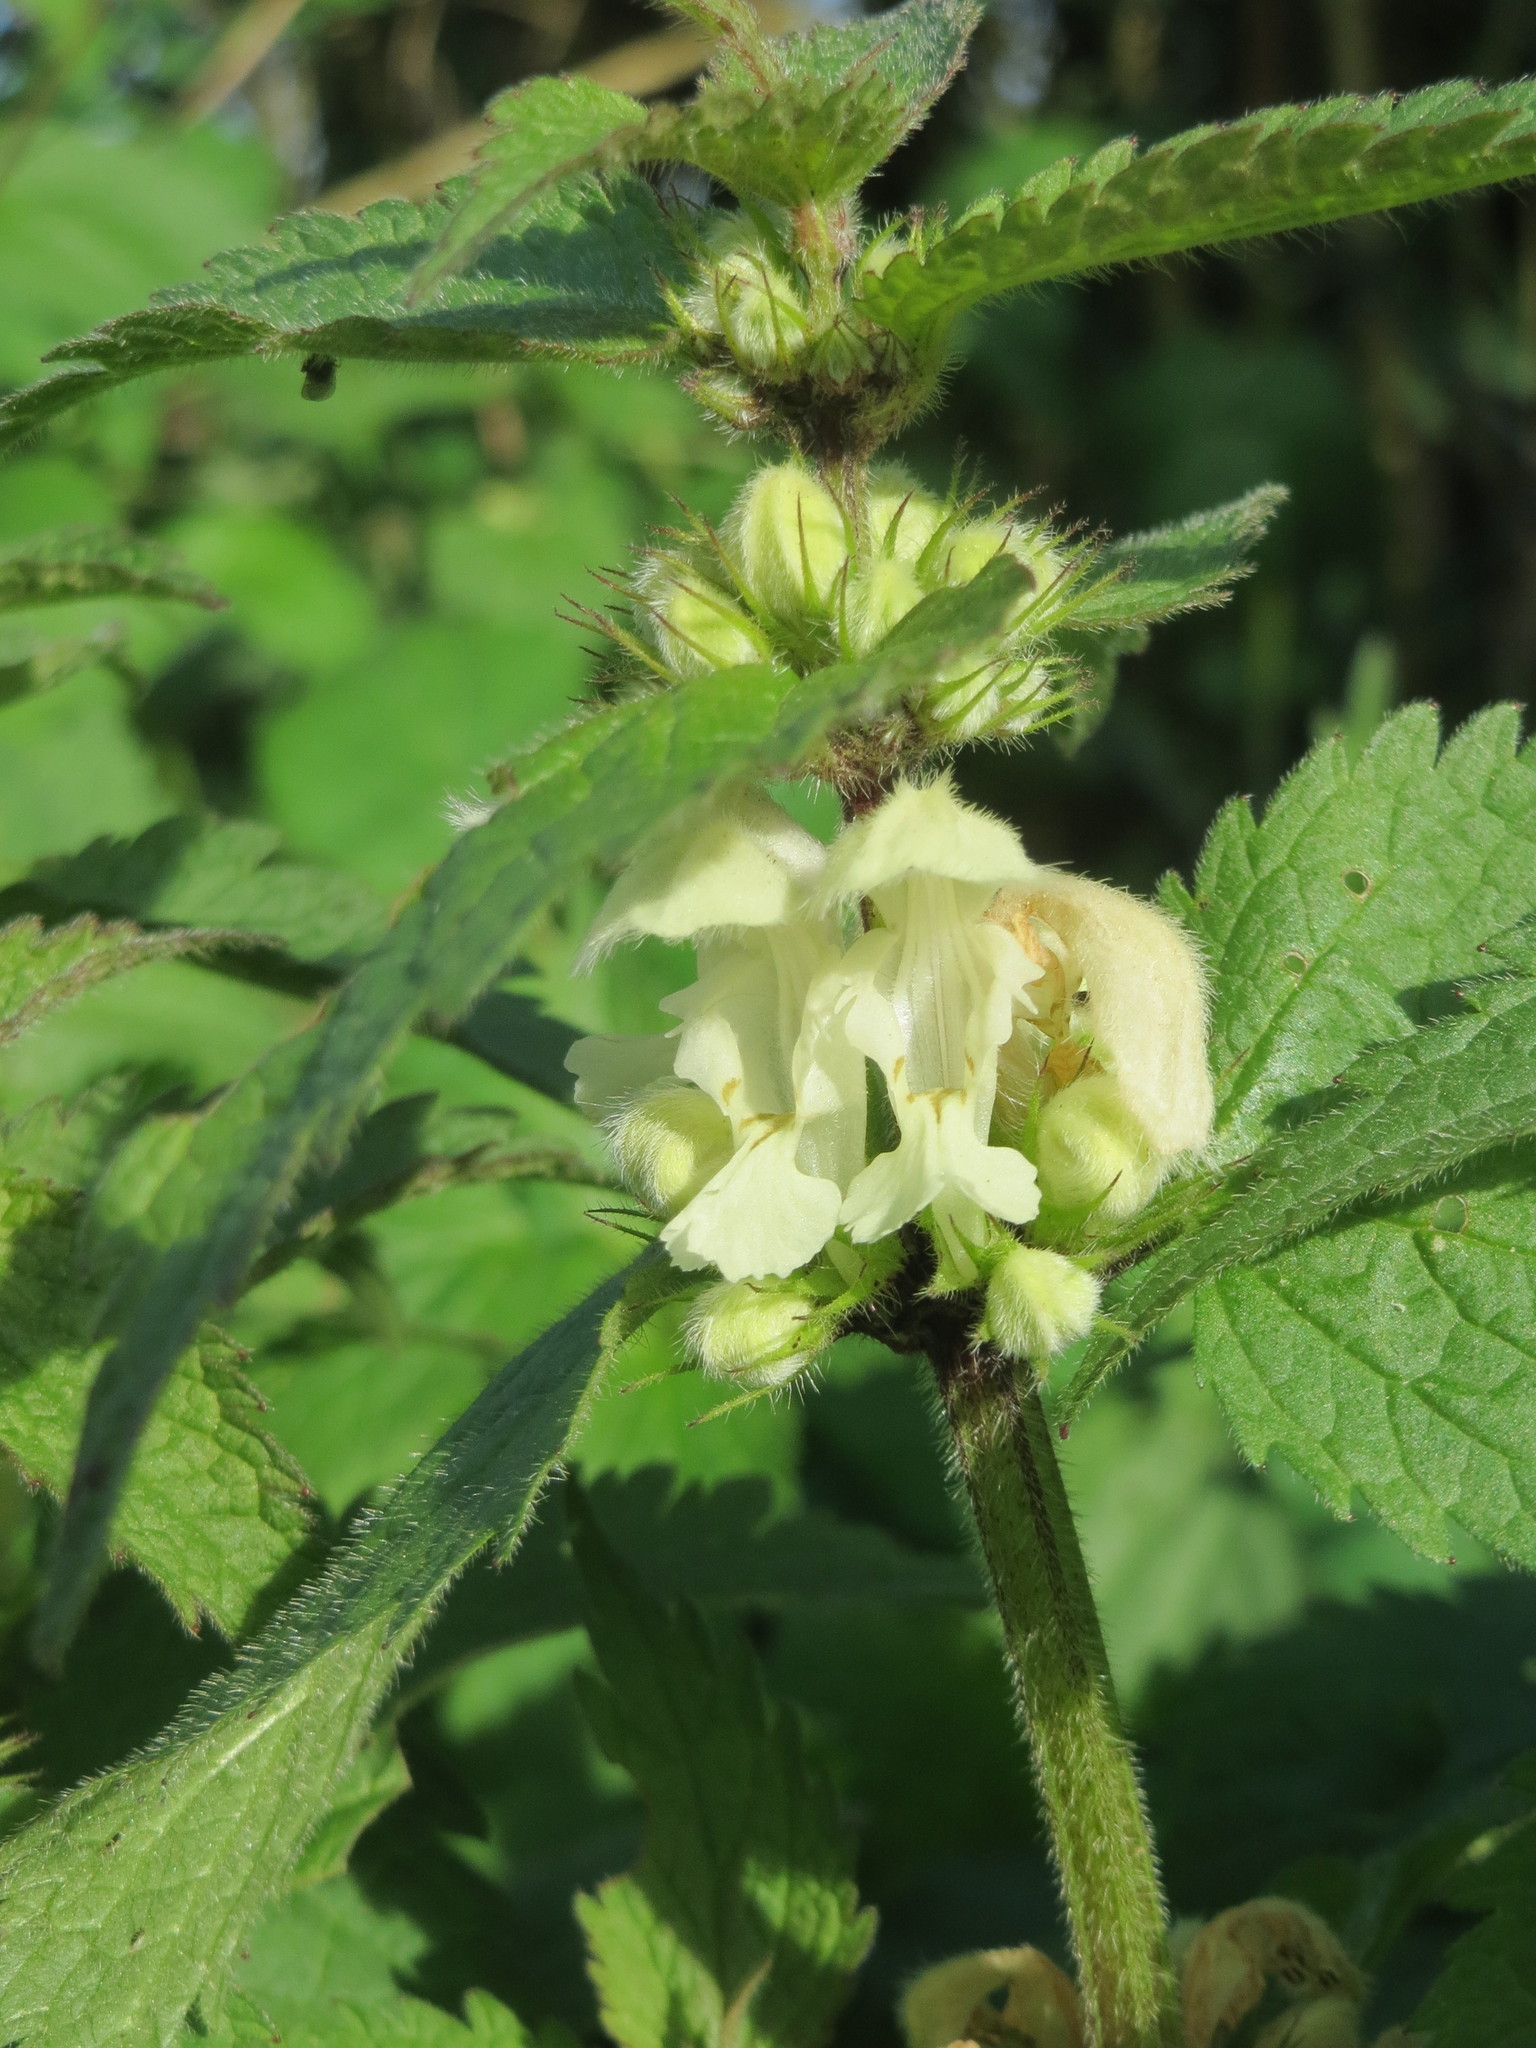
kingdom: Plantae
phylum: Tracheophyta
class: Magnoliopsida
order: Lamiales
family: Lamiaceae
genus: Lamium
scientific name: Lamium album
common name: White dead-nettle
